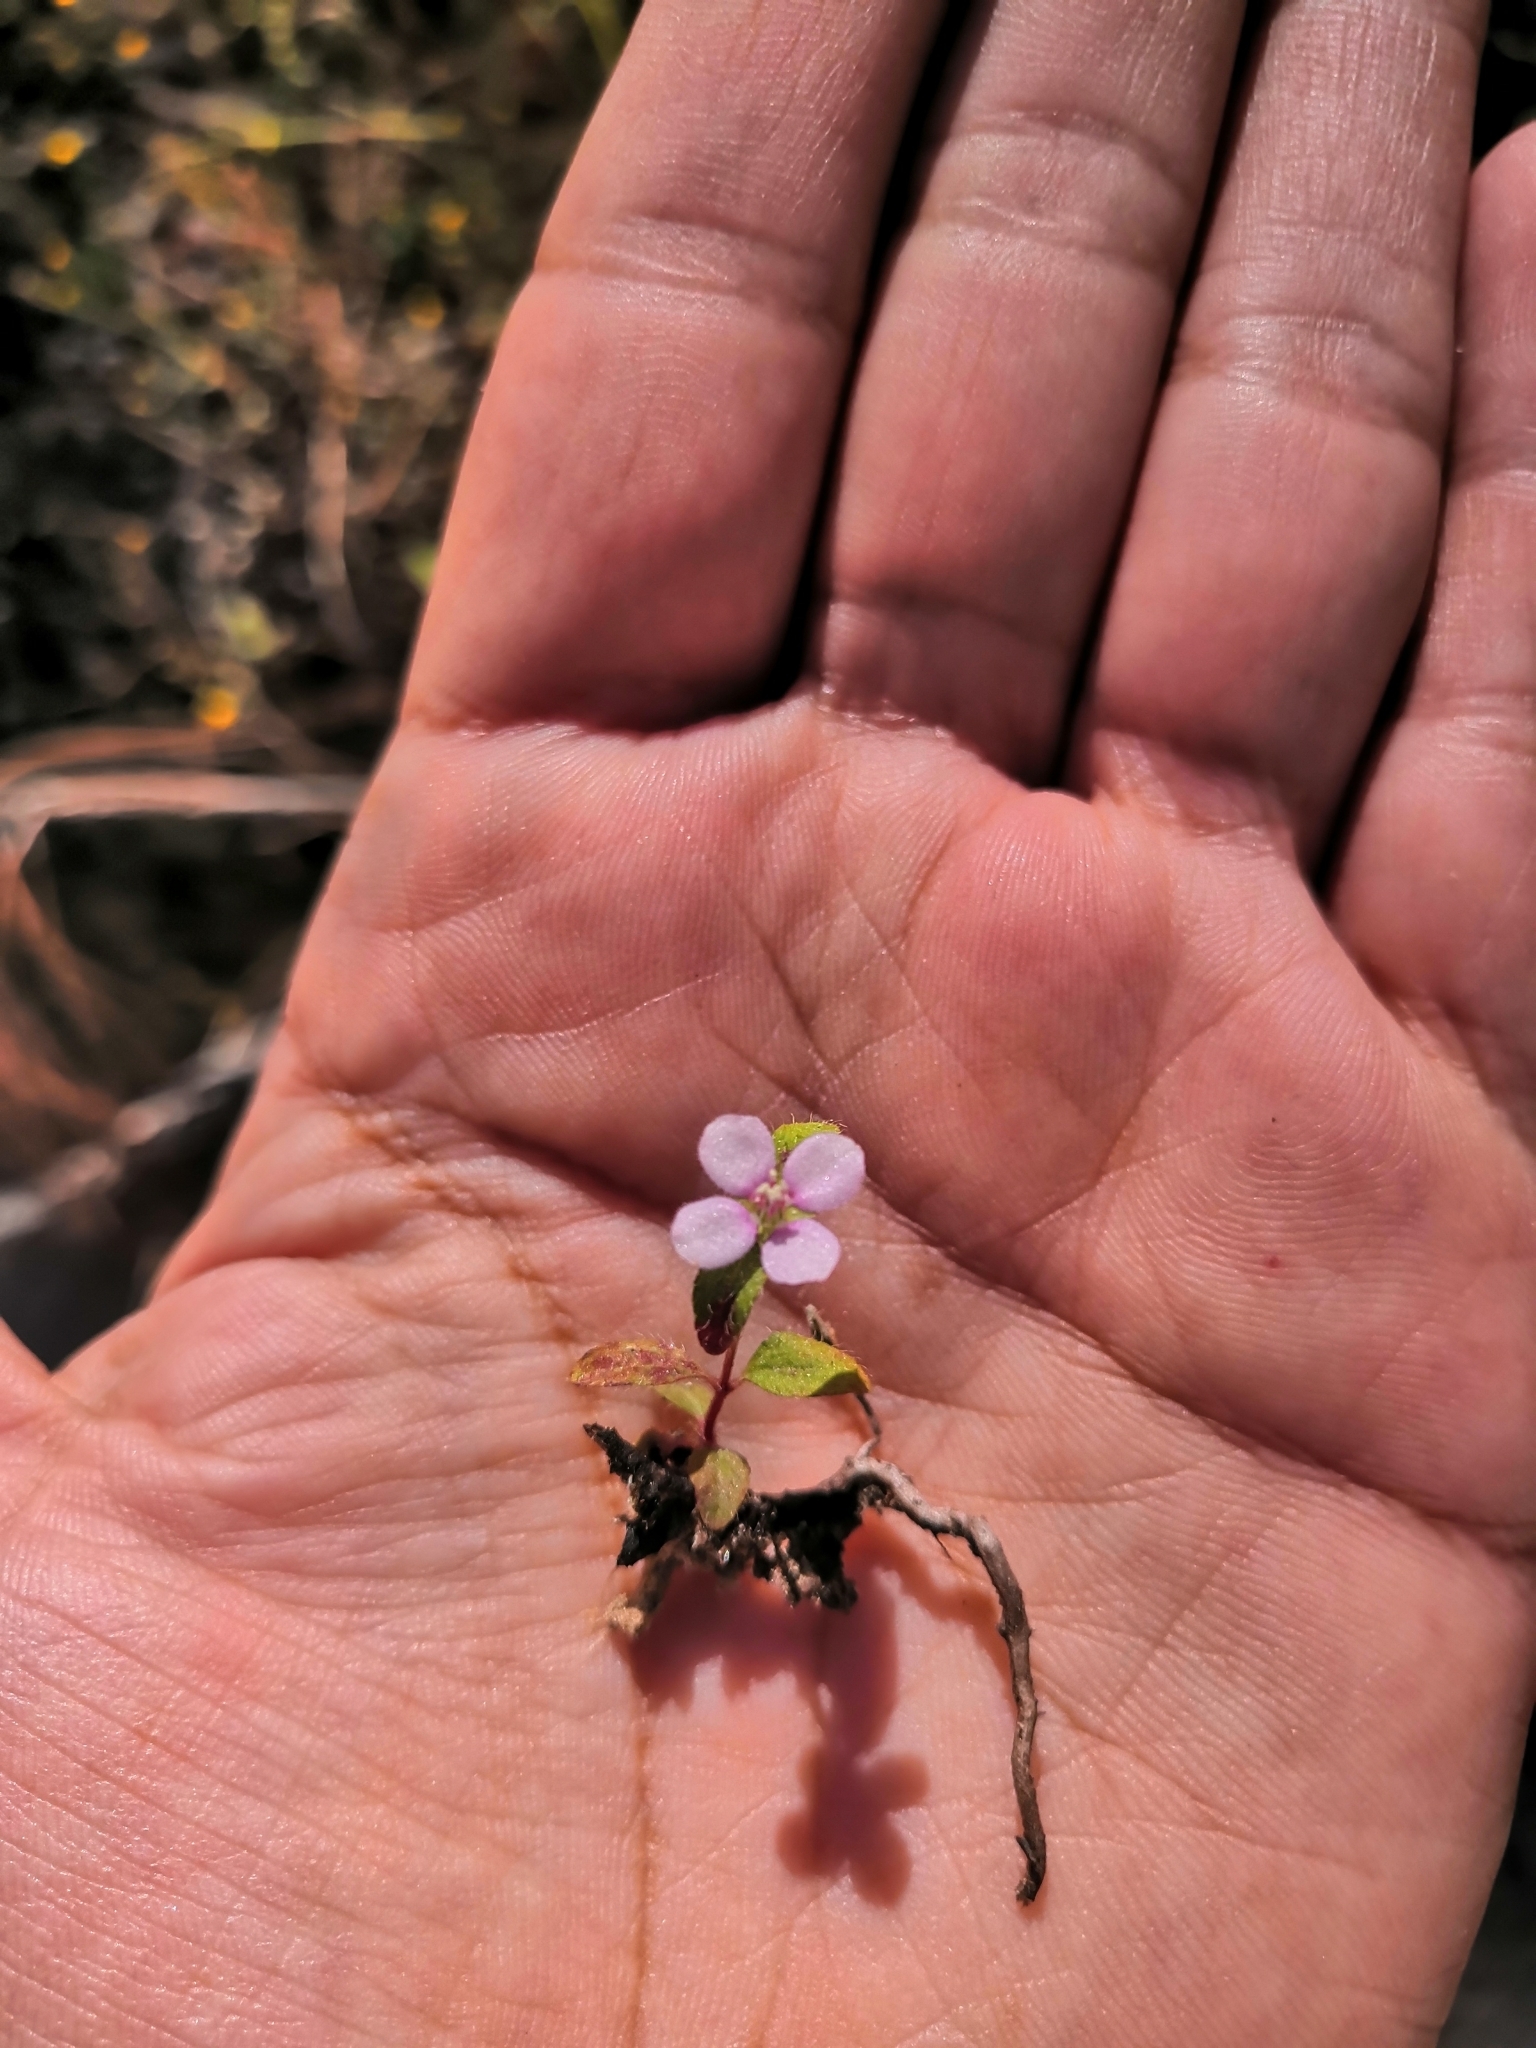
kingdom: Plantae
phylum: Tracheophyta
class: Magnoliopsida
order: Myrtales
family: Melastomataceae
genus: Pterolepis
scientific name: Pterolepis trichotoma
